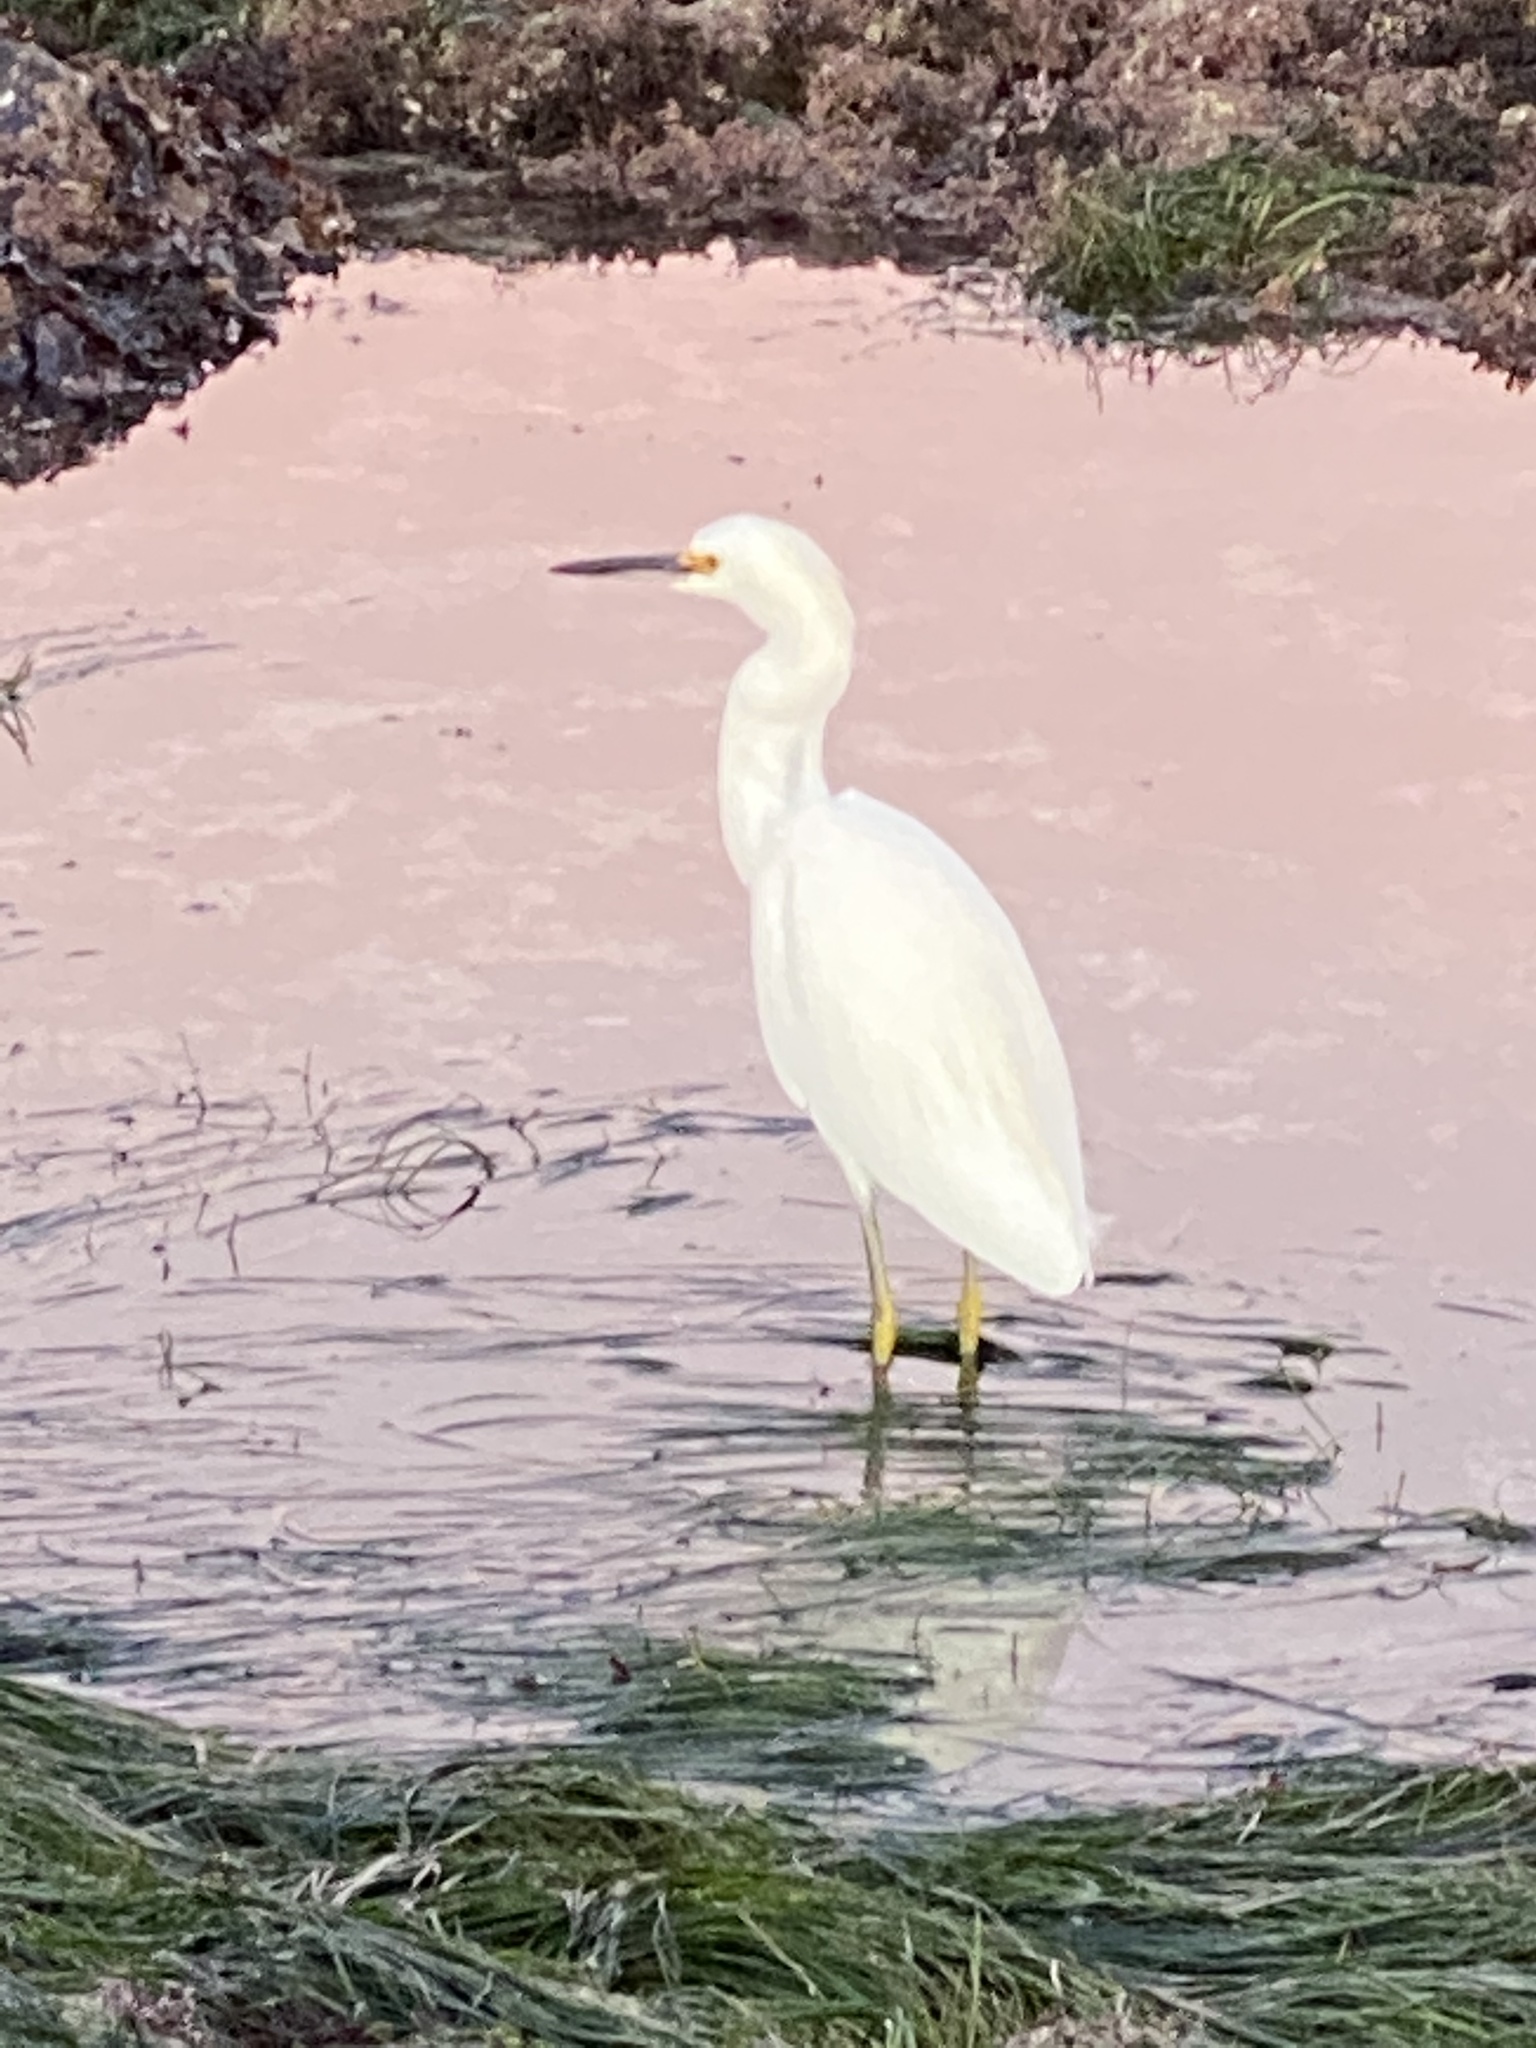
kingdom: Animalia
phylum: Chordata
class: Aves
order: Pelecaniformes
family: Ardeidae
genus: Egretta
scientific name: Egretta thula
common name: Snowy egret
